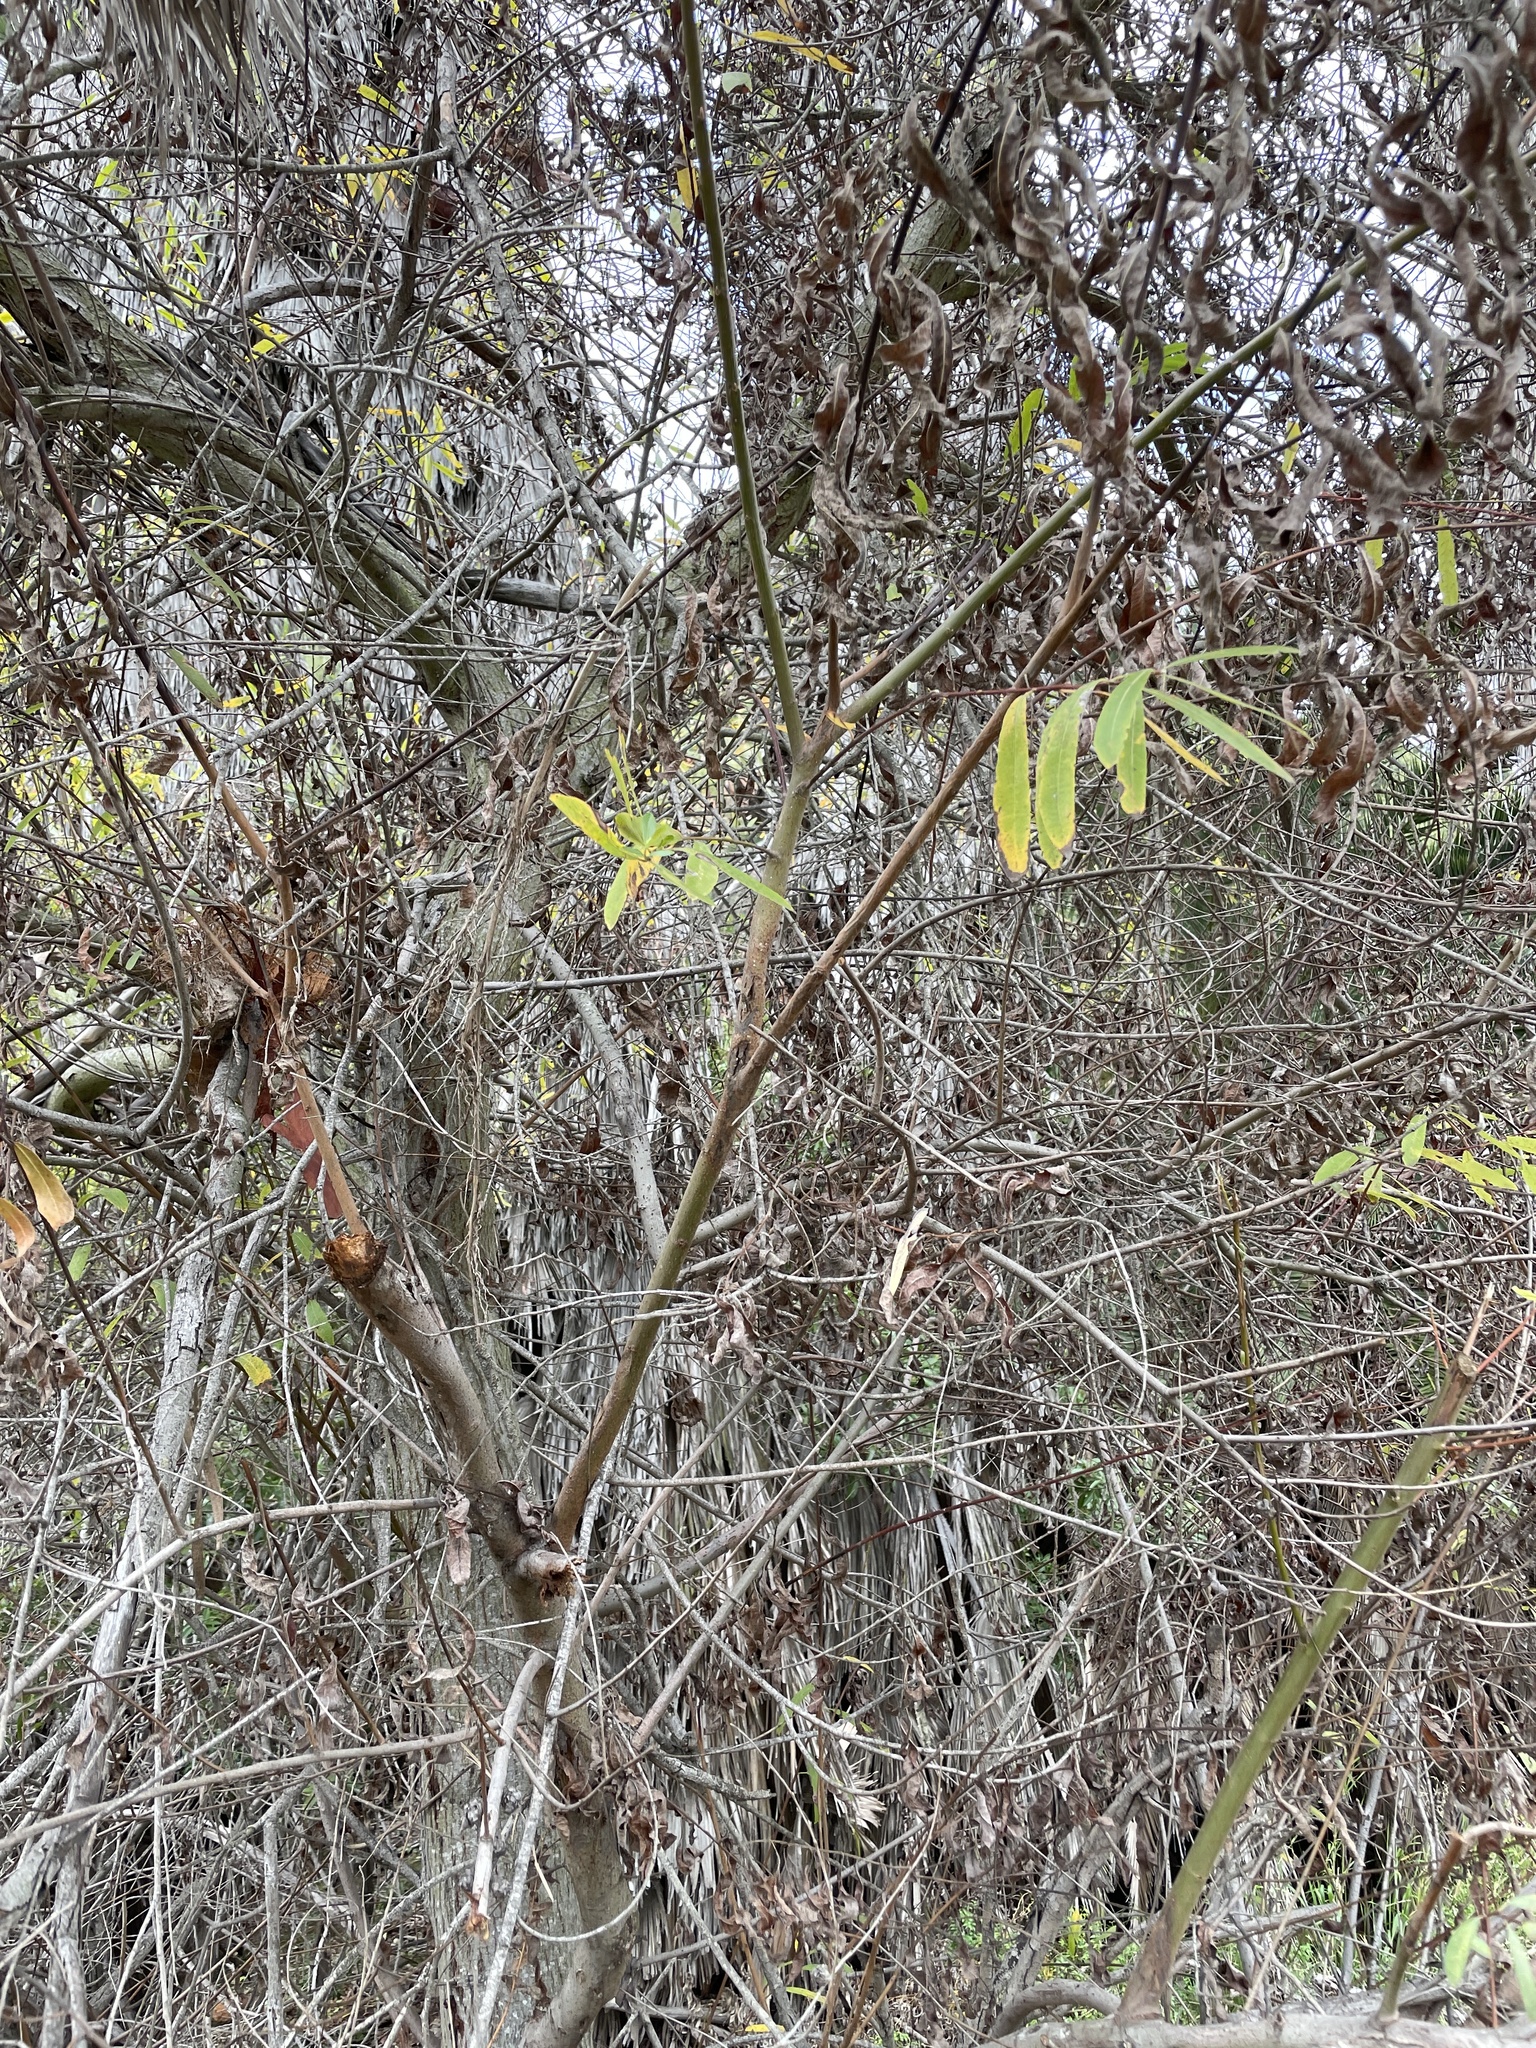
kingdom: Plantae
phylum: Tracheophyta
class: Magnoliopsida
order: Malpighiales
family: Salicaceae
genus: Salix
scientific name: Salix lasiolepis
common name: Arroyo willow
